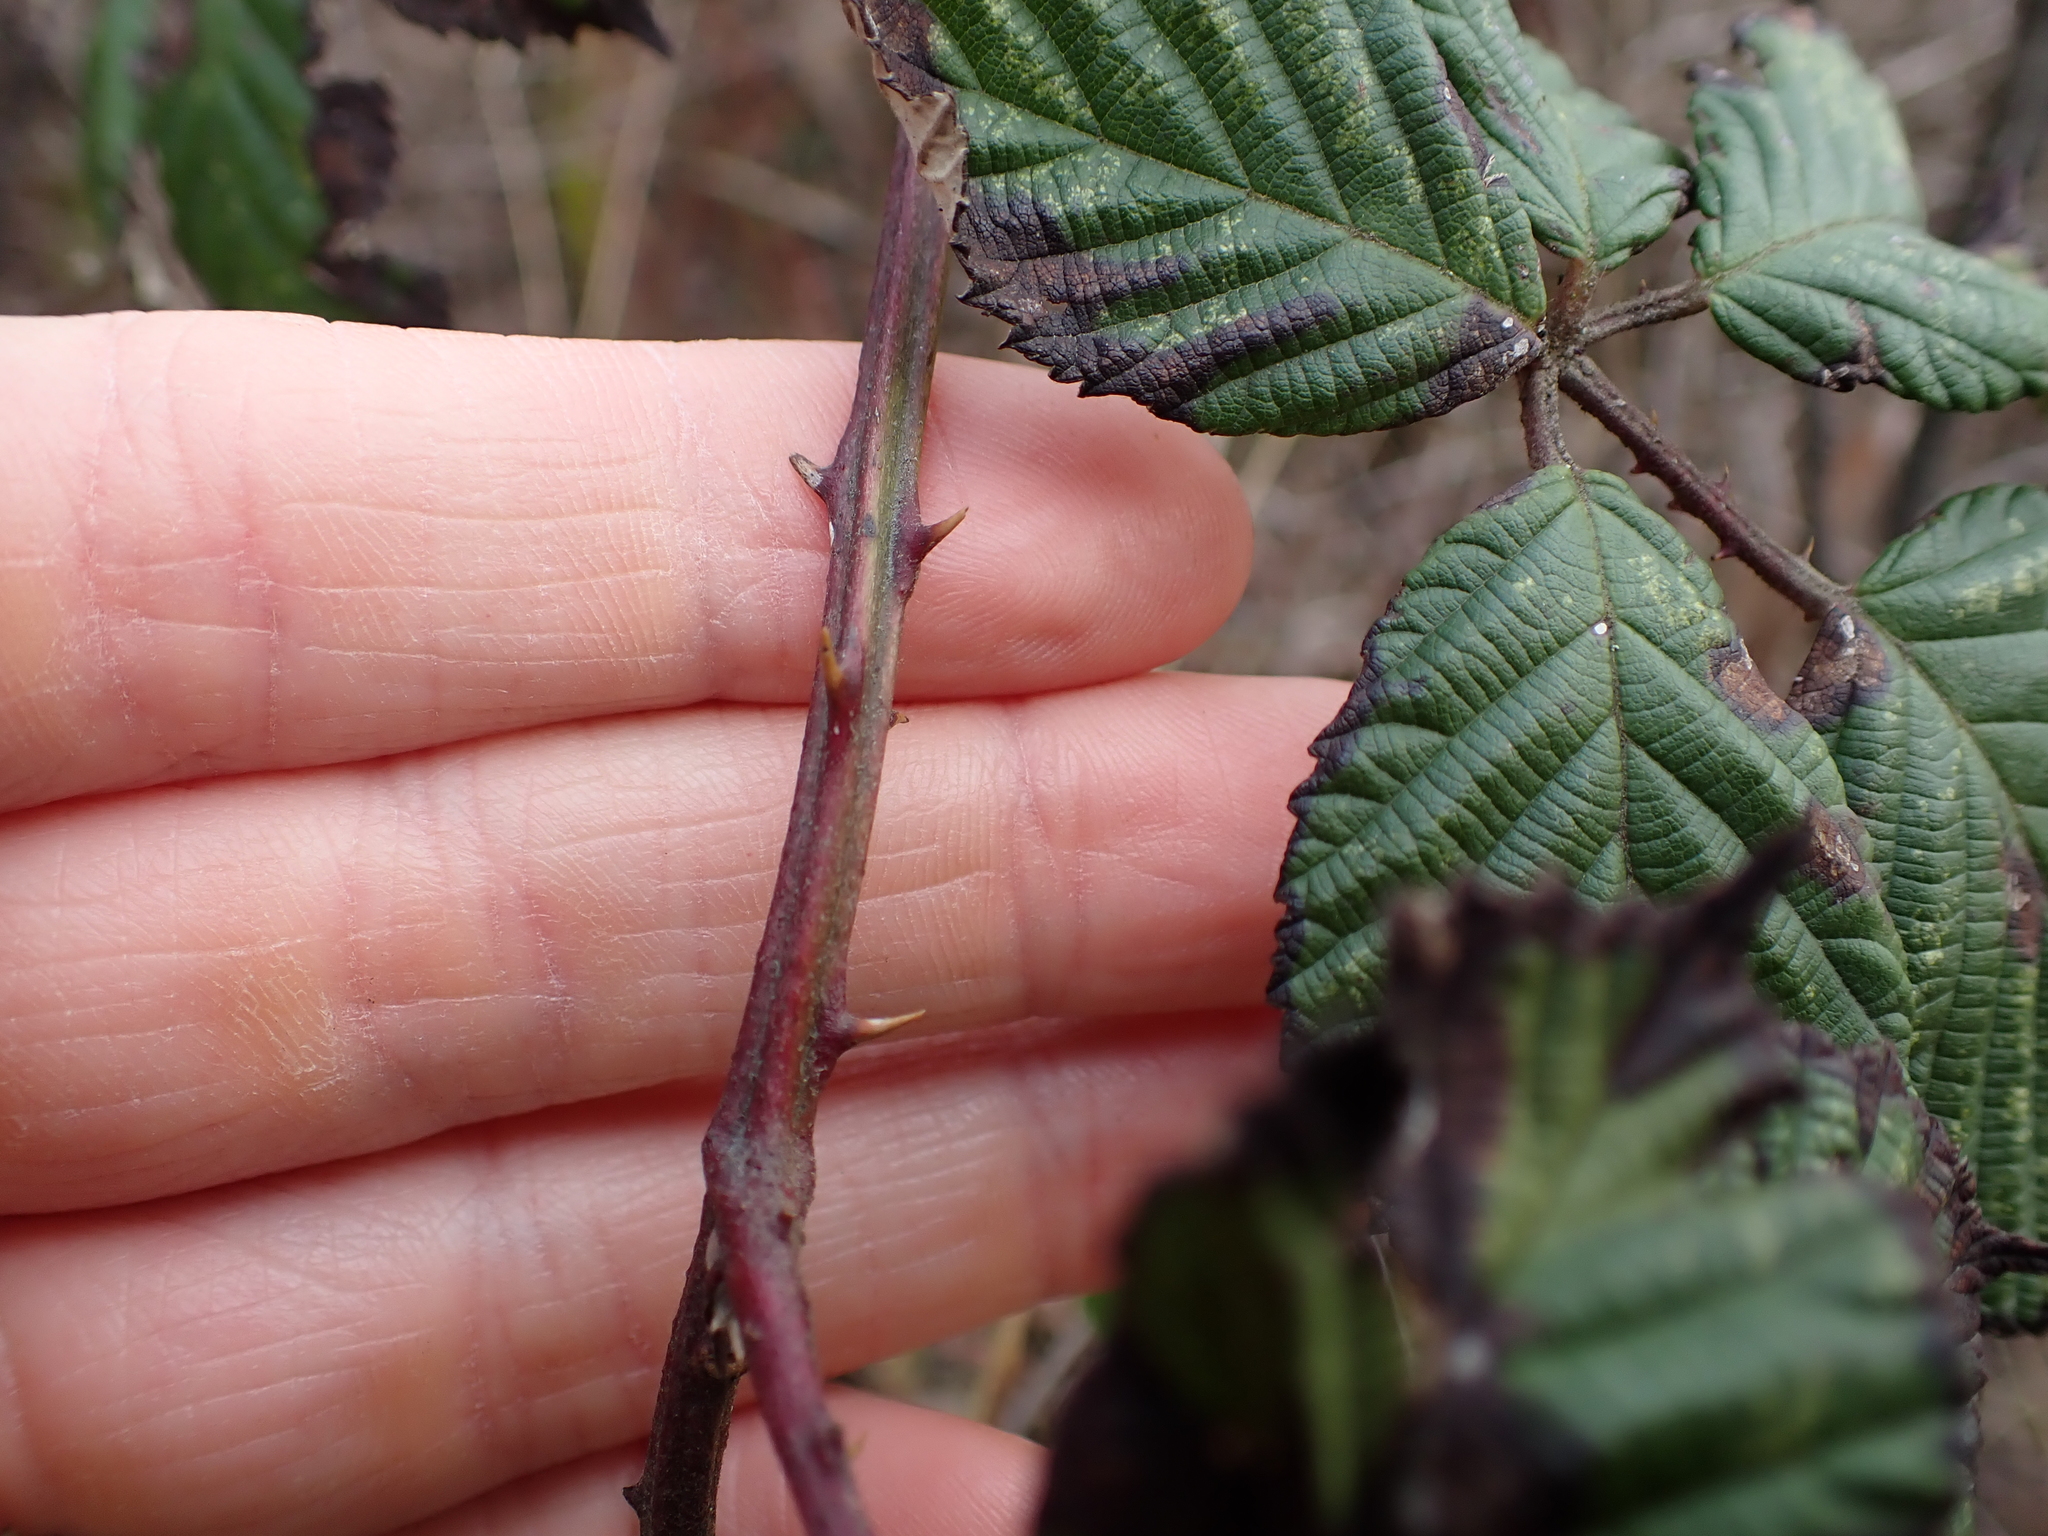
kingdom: Plantae
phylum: Tracheophyta
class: Magnoliopsida
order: Rosales
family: Rosaceae
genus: Rubus
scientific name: Rubus bifrons
